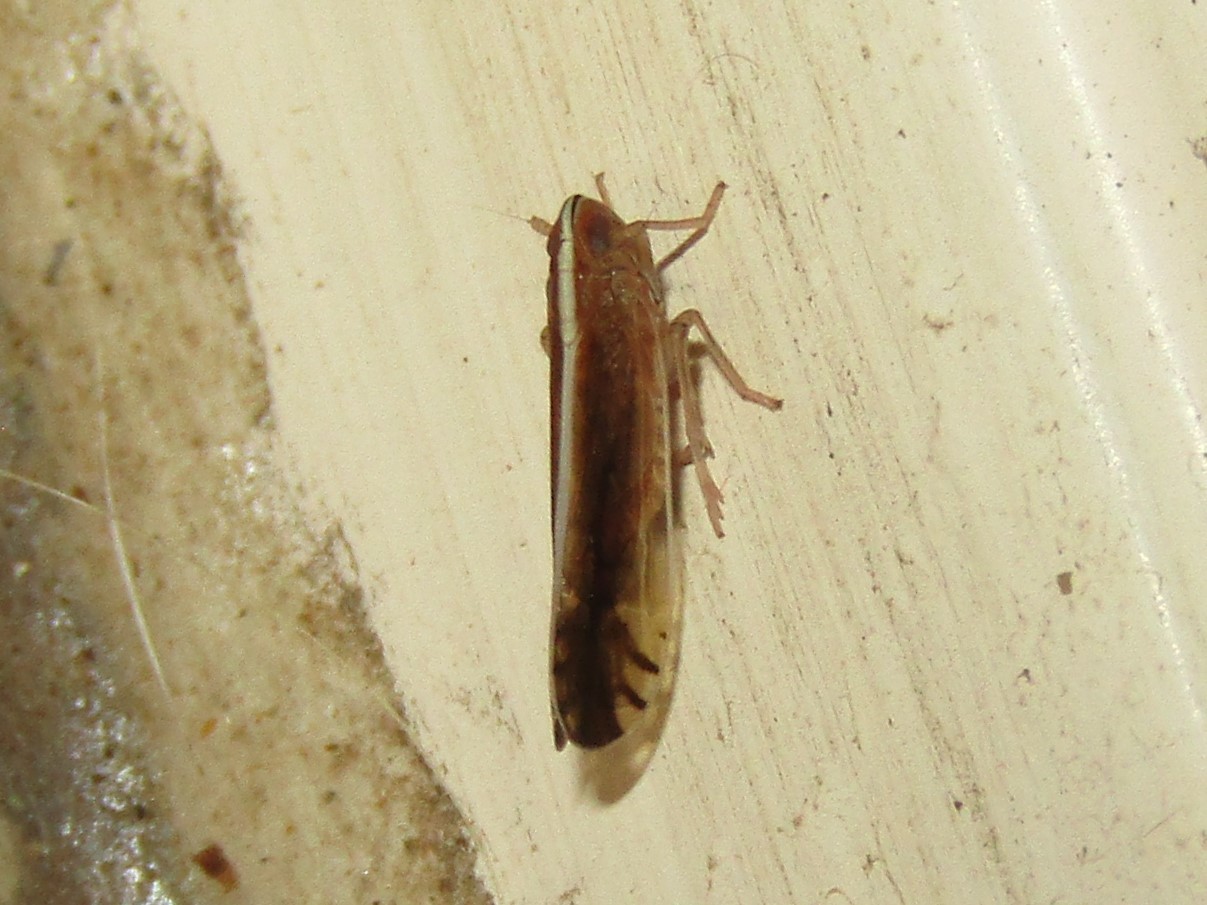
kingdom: Animalia
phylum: Arthropoda
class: Insecta
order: Hemiptera
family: Delphacidae
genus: Stenocranus
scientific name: Stenocranus lautus
